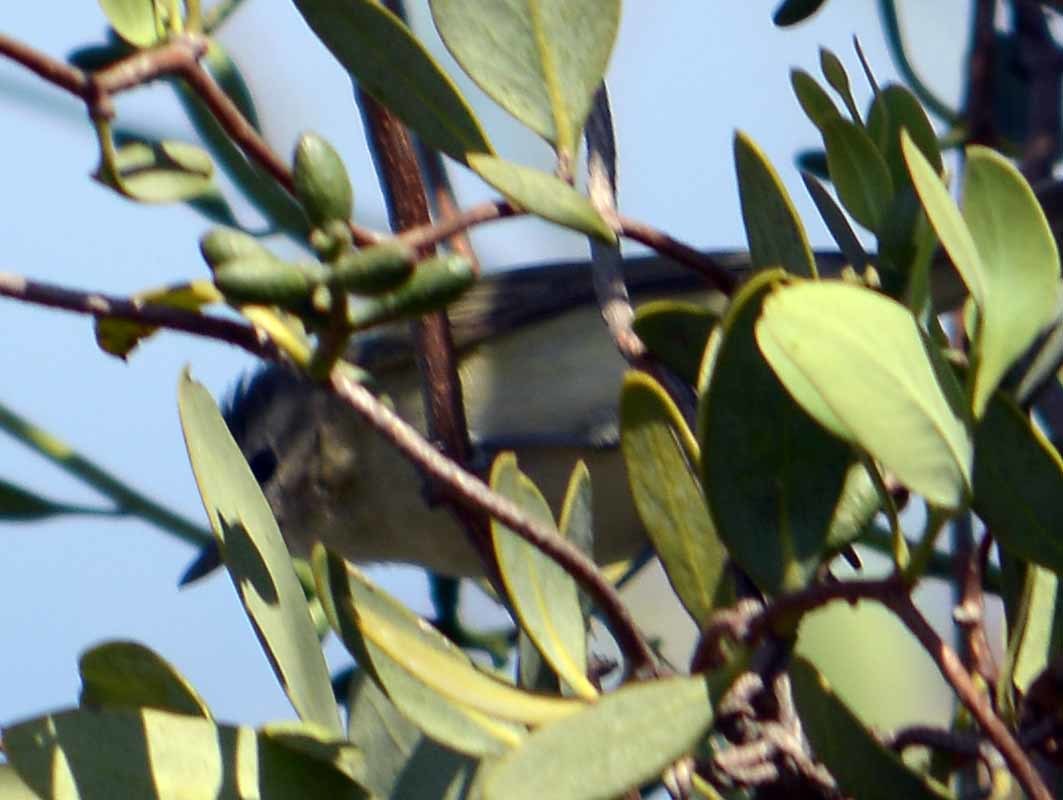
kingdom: Animalia
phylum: Chordata
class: Aves
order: Passeriformes
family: Vireonidae
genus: Vireo
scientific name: Vireo philadelphicus
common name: Philadelphia vireo
